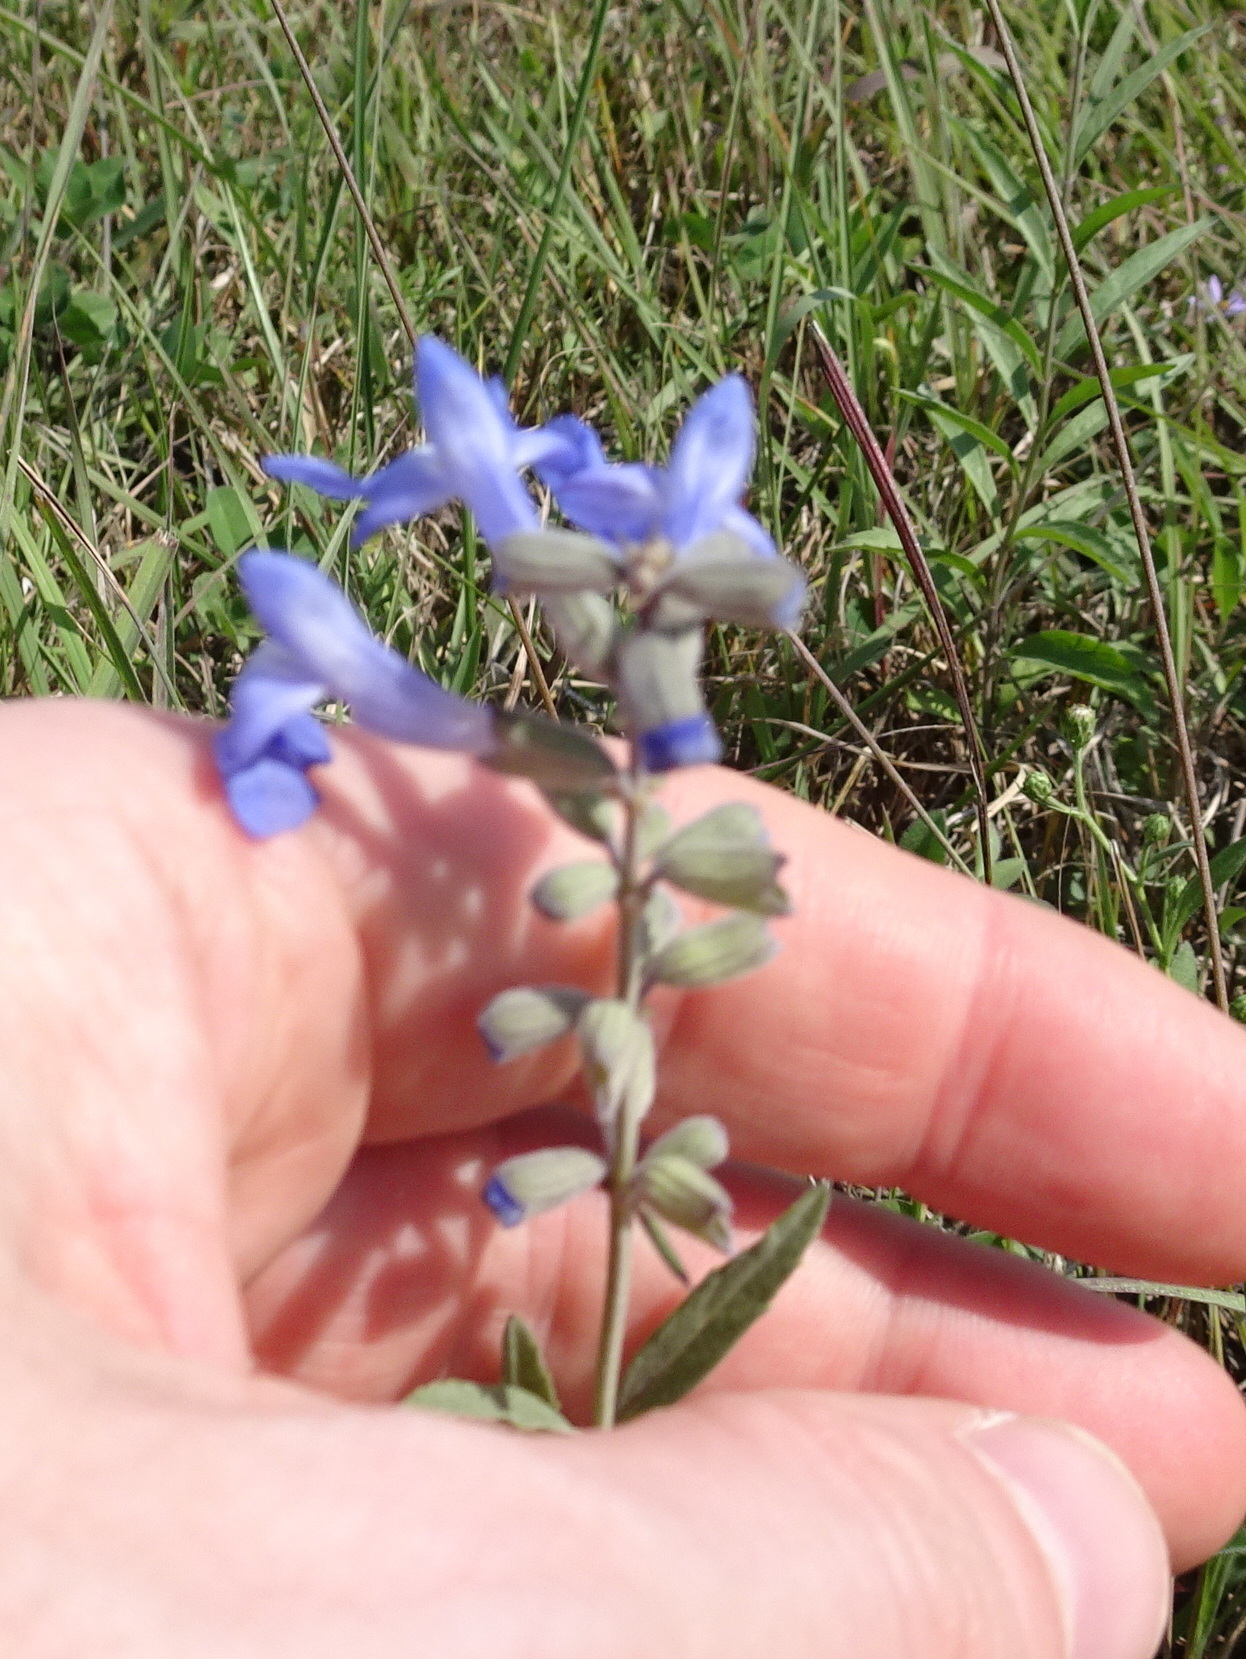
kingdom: Plantae
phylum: Tracheophyta
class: Magnoliopsida
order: Lamiales
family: Lamiaceae
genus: Salvia
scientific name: Salvia azurea
